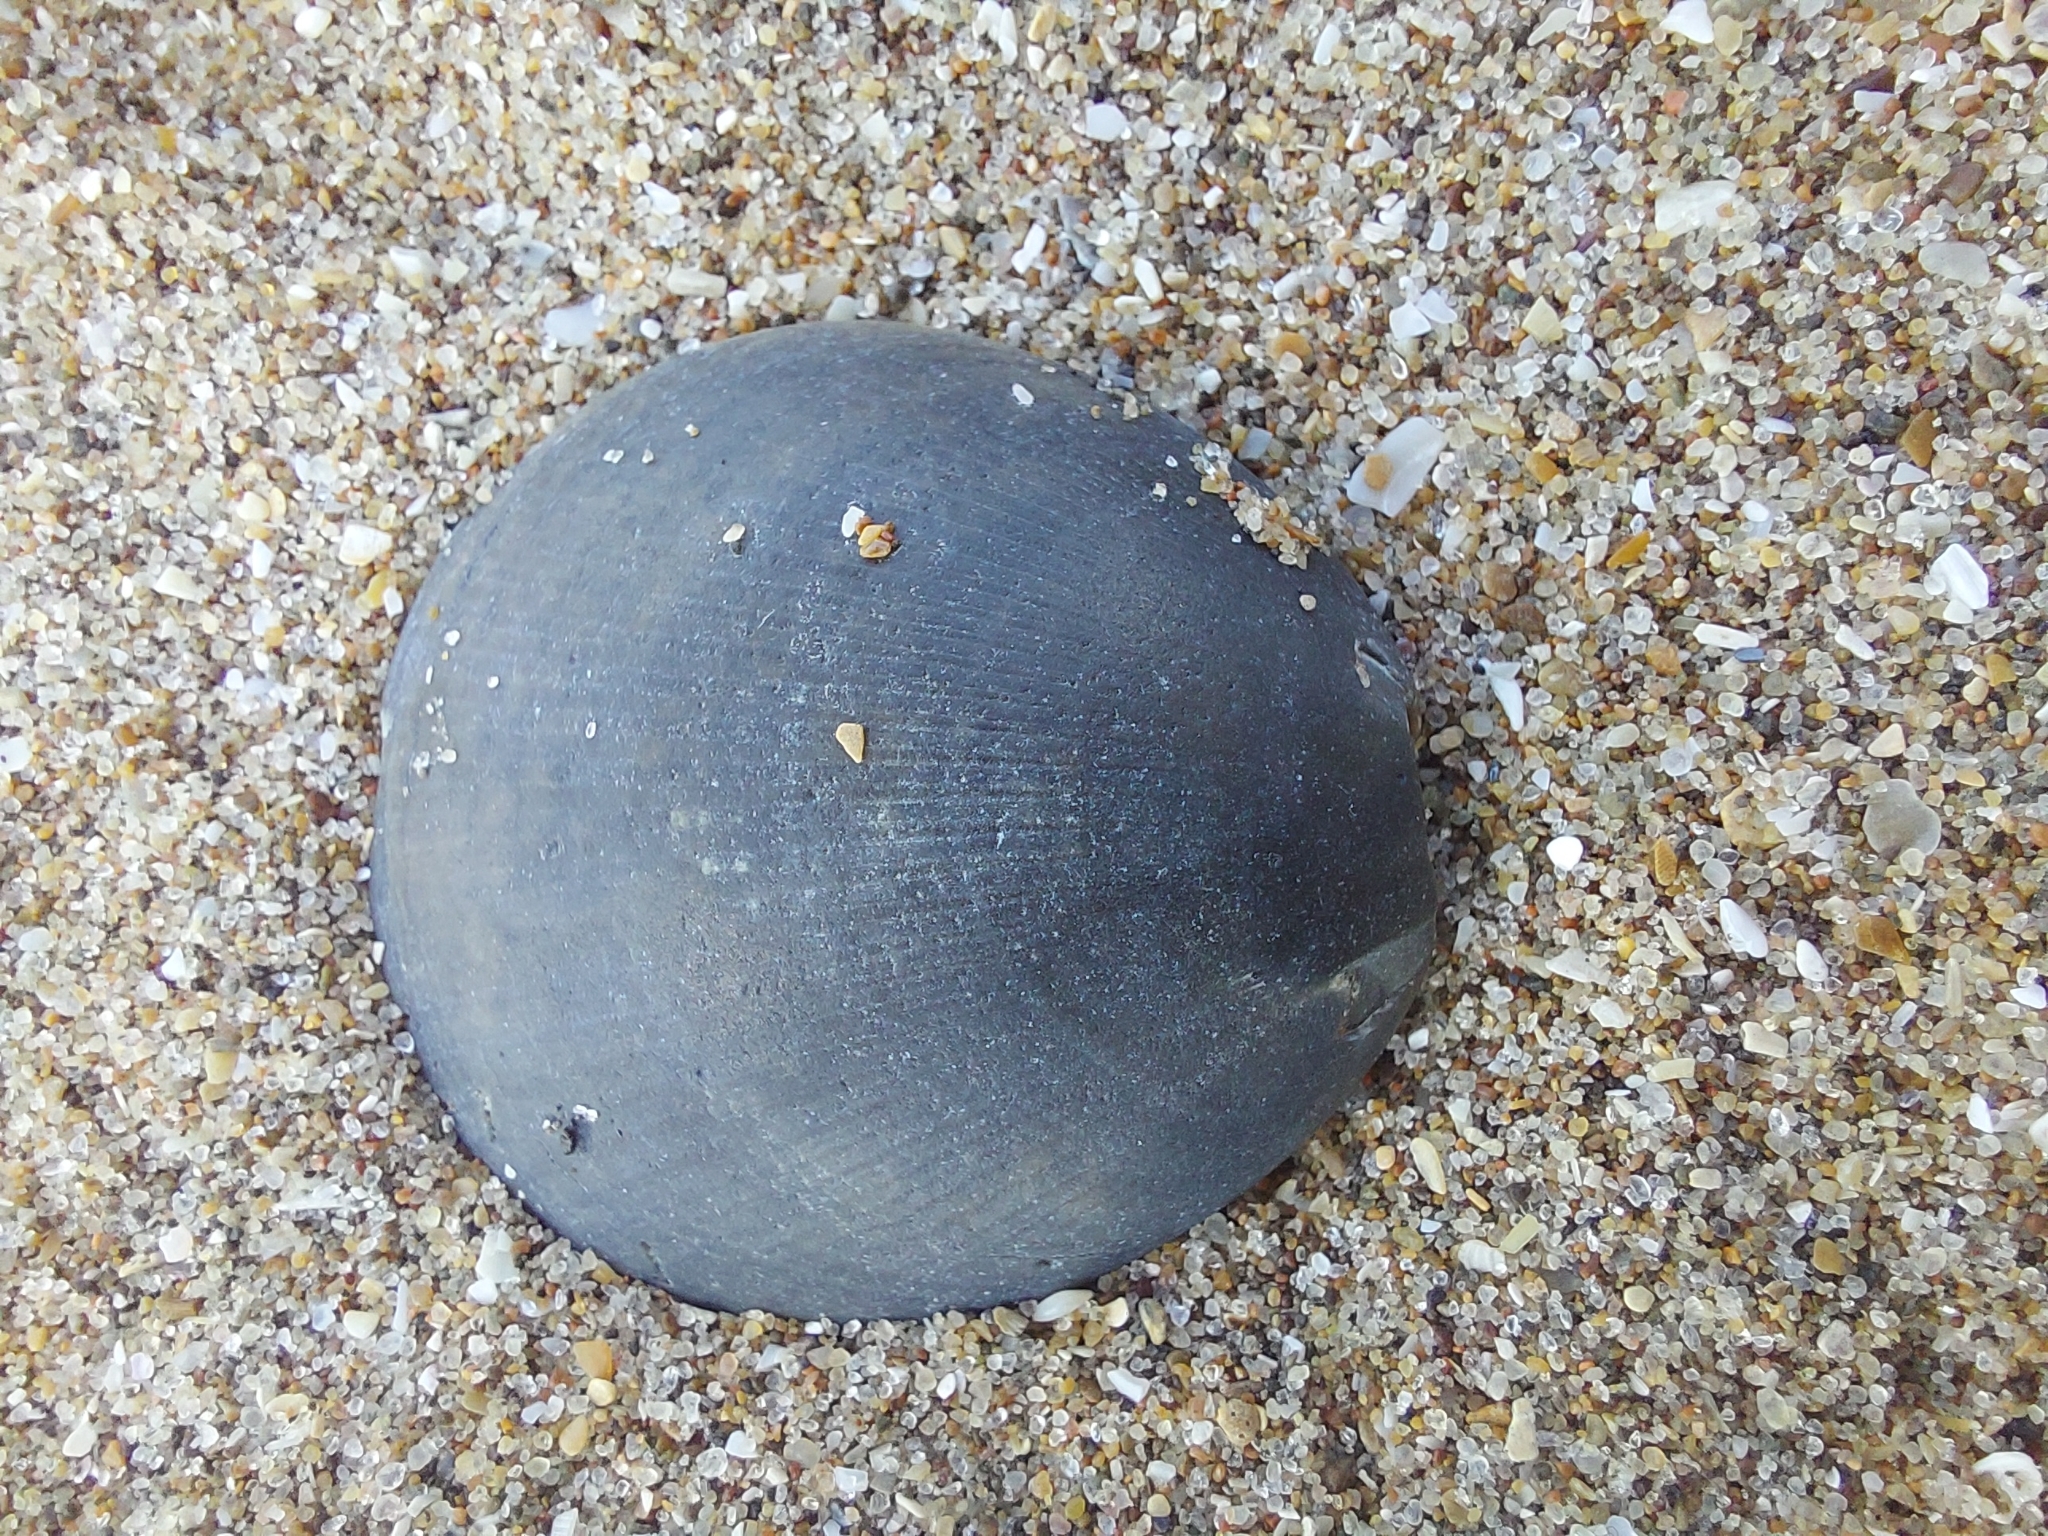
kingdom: Animalia
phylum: Mollusca
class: Bivalvia
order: Arcida
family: Glycymerididae
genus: Glycymeris
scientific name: Glycymeris longior
